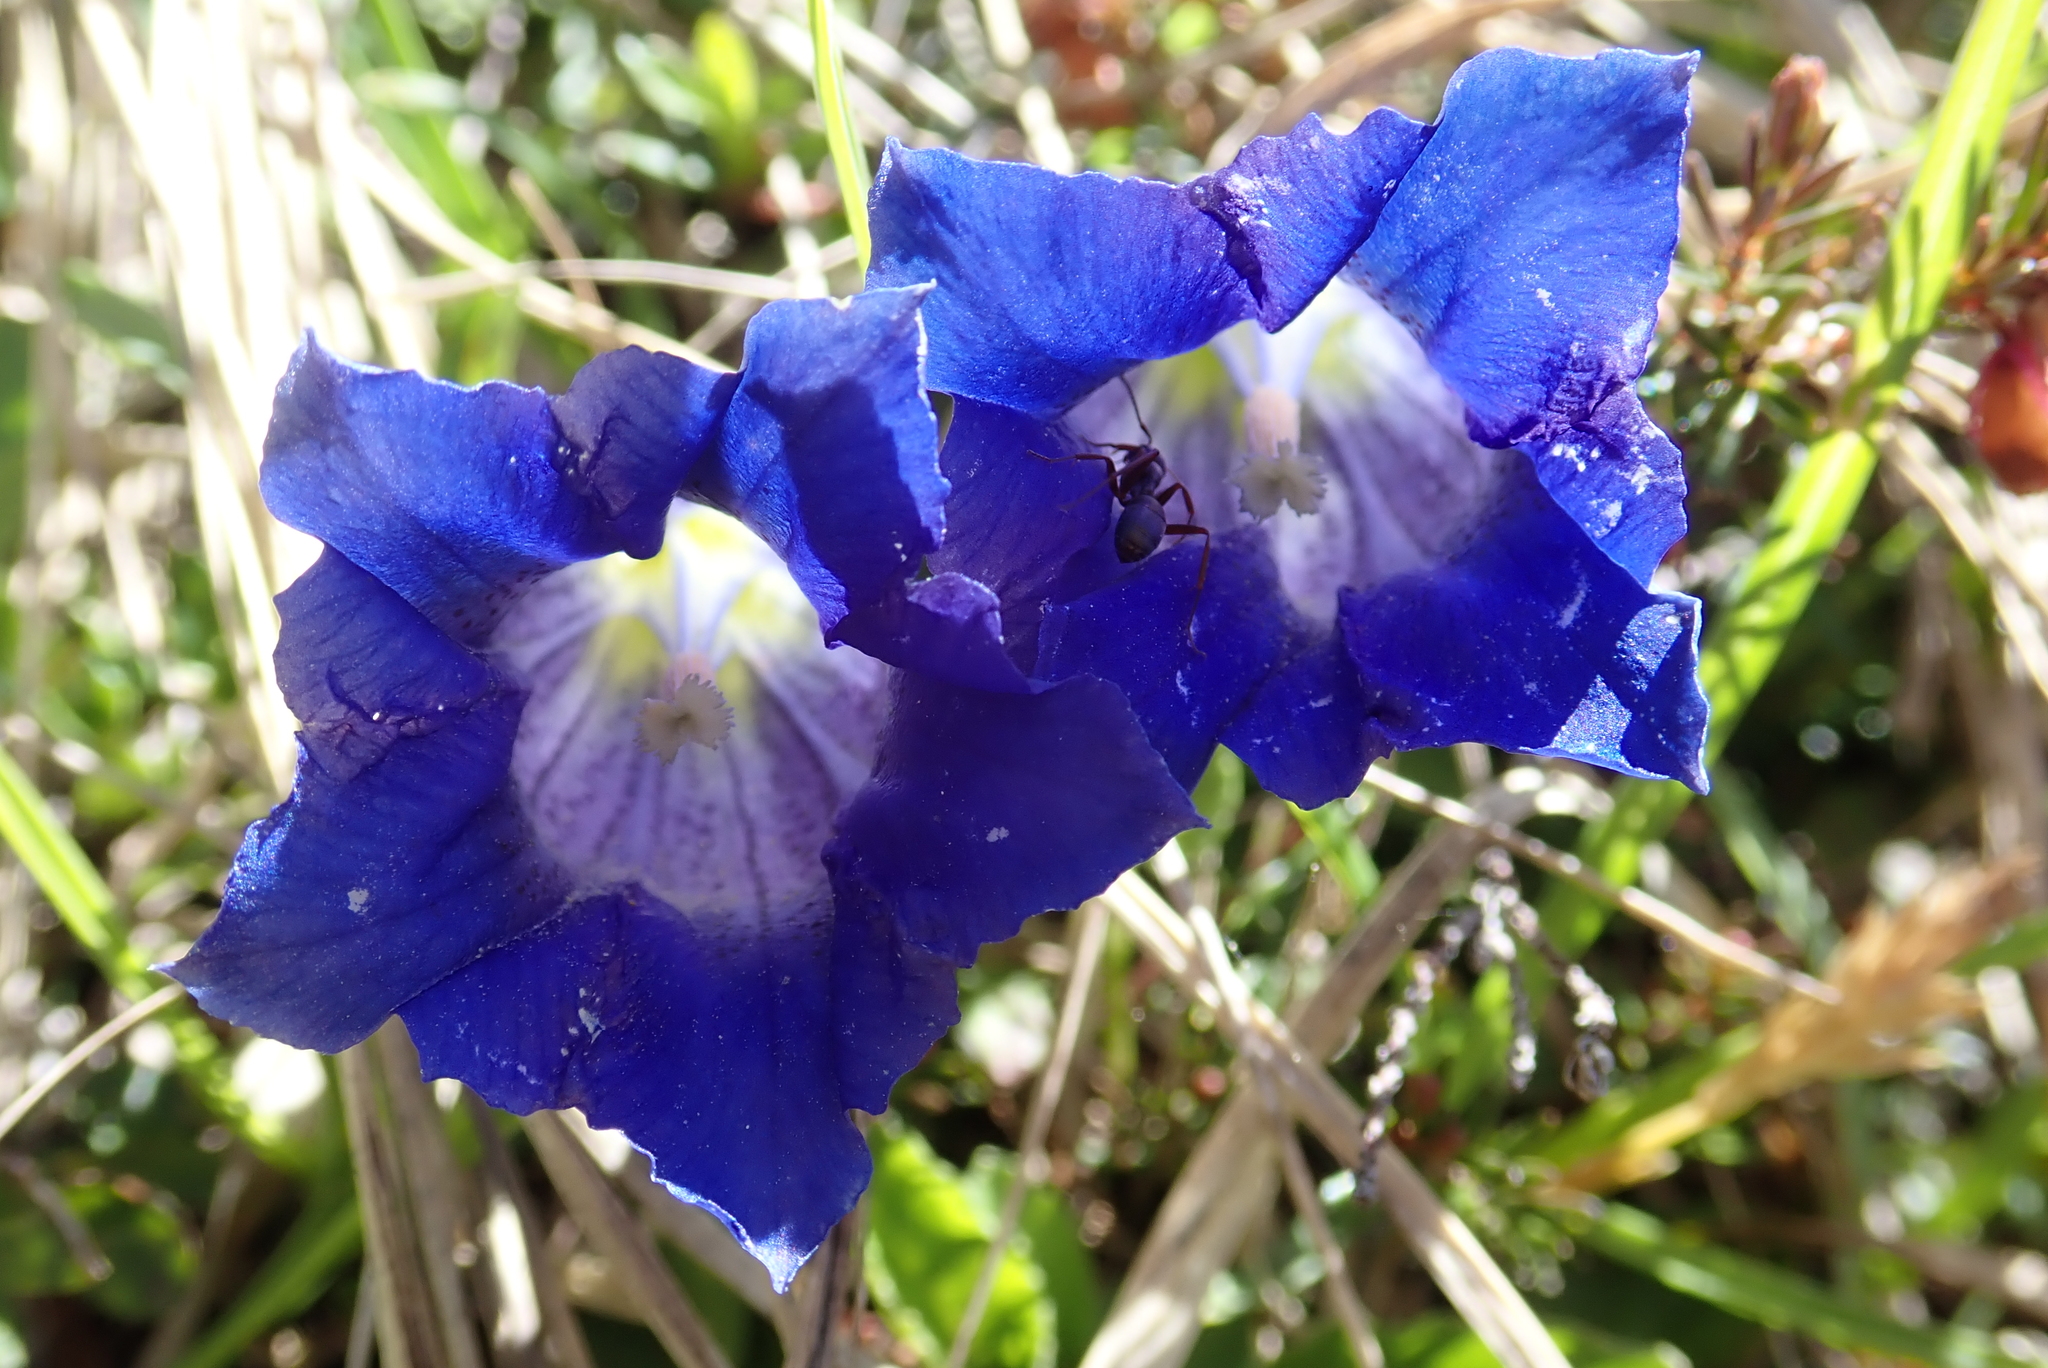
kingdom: Plantae
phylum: Tracheophyta
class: Magnoliopsida
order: Gentianales
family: Gentianaceae
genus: Gentiana
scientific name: Gentiana clusii
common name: Trumpet gentian
